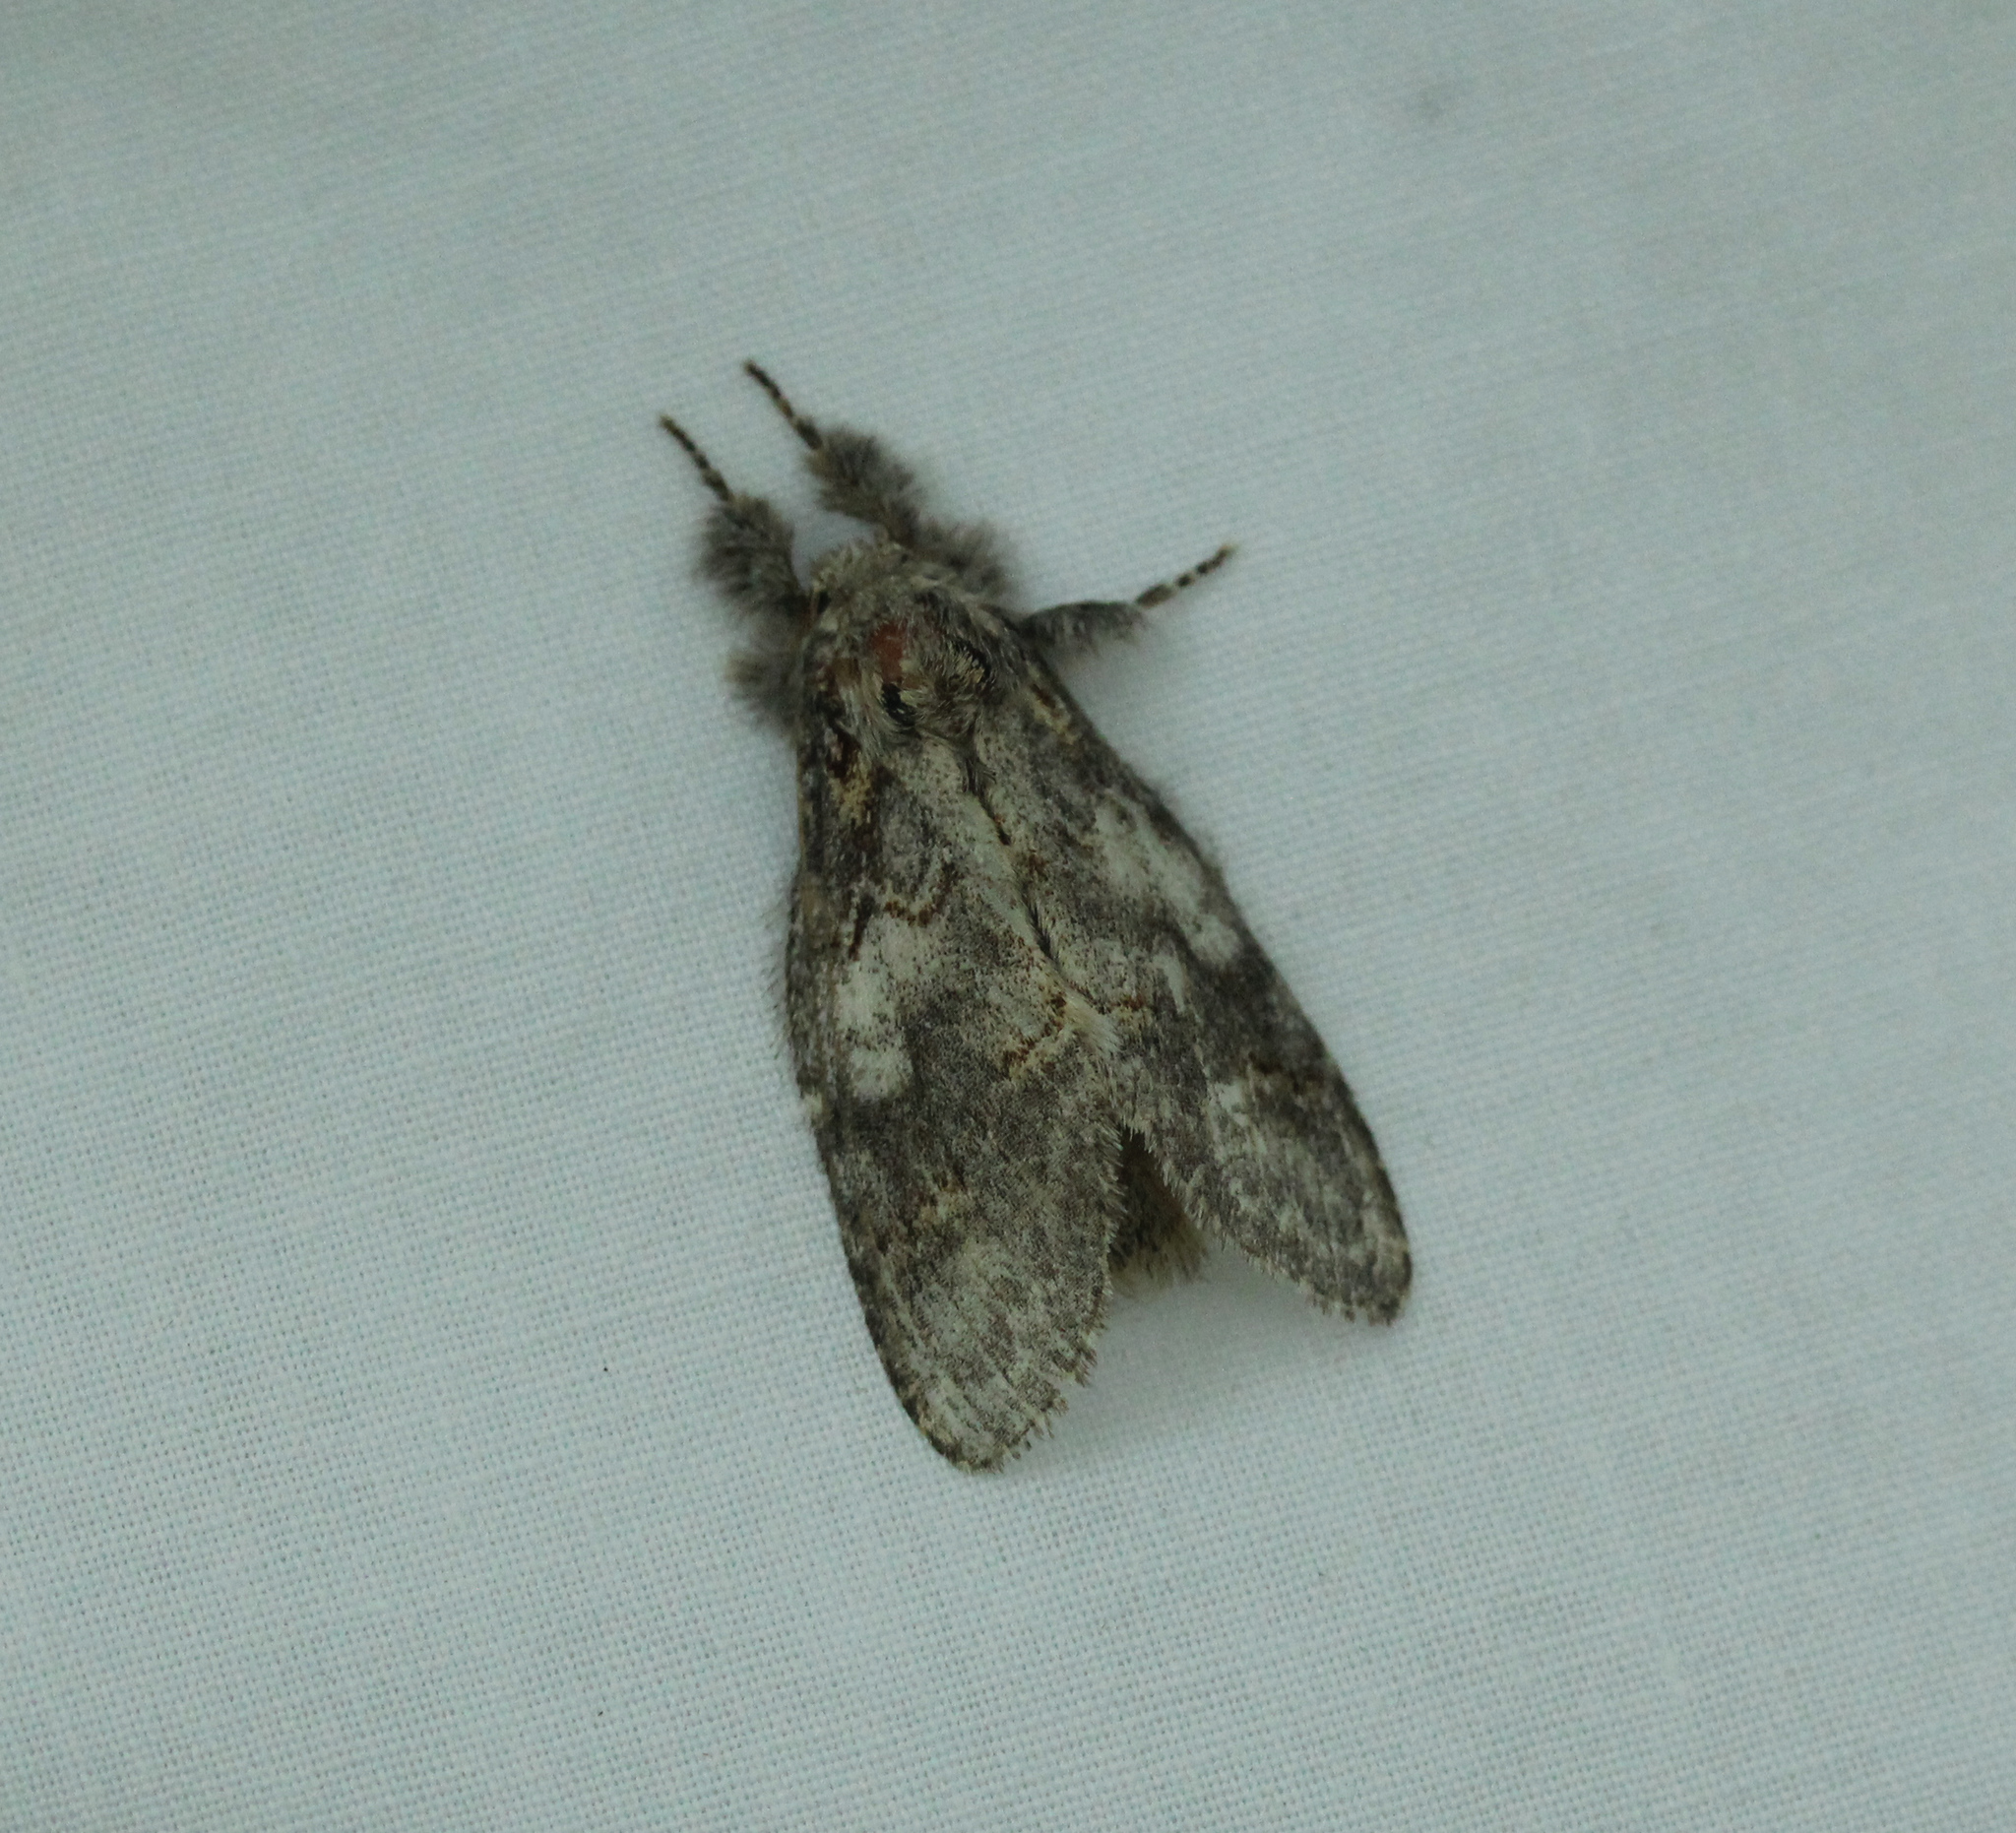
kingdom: Animalia
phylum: Arthropoda
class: Insecta
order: Lepidoptera
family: Notodontidae
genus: Peridea
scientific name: Peridea angulosa
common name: Angulose prominent
